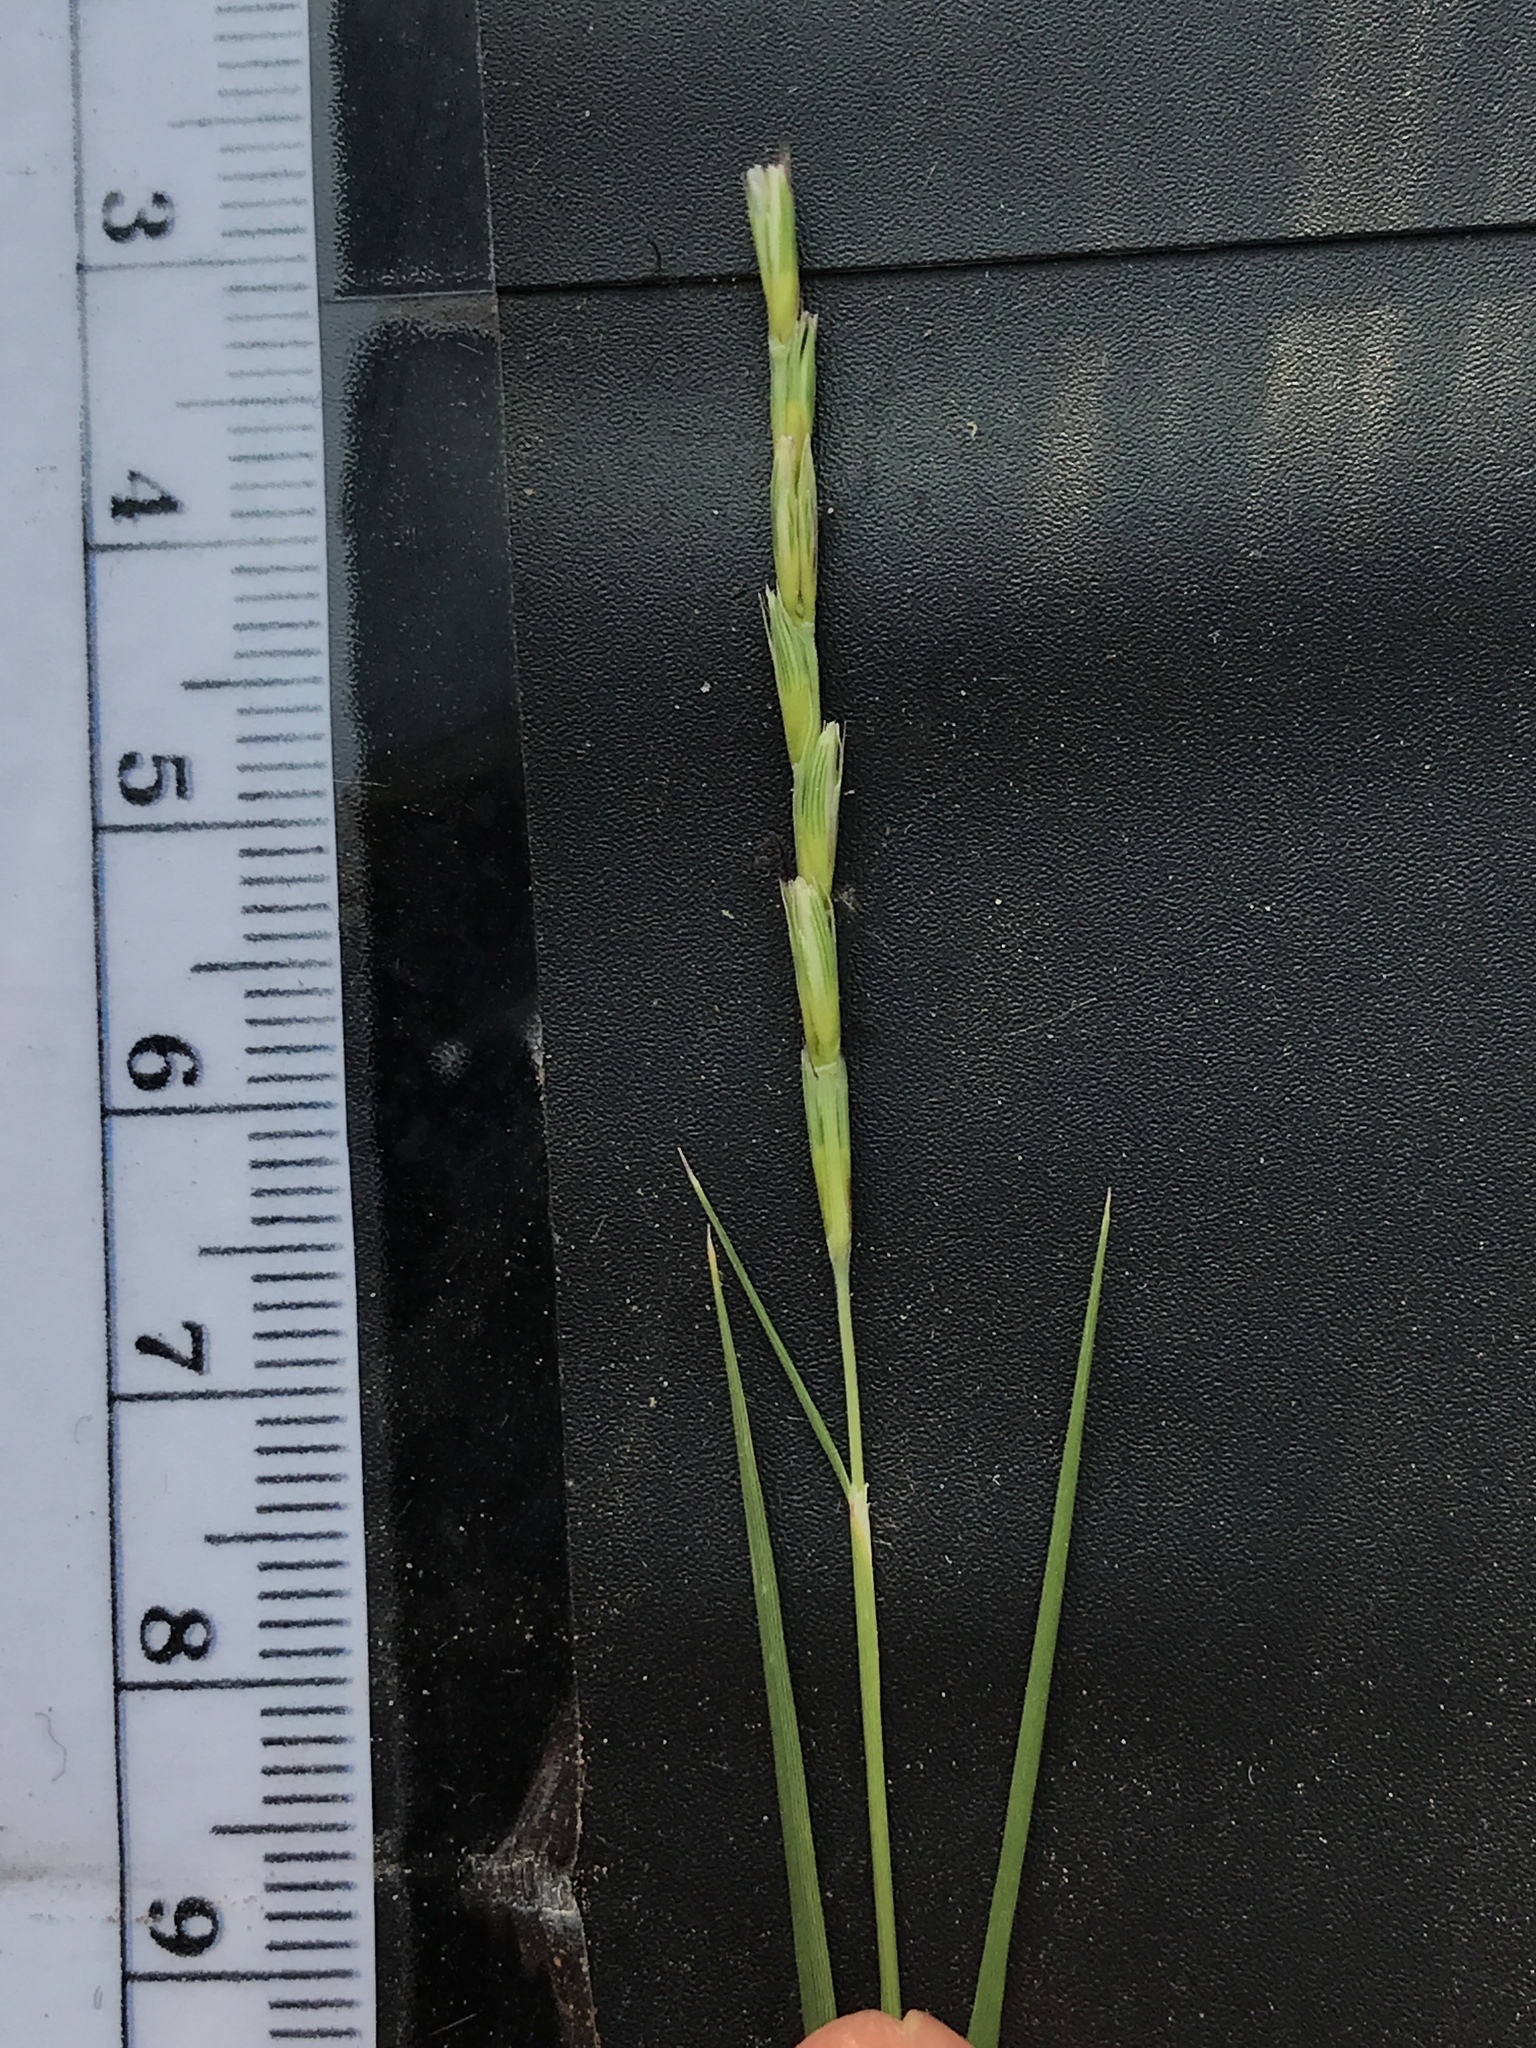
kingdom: Plantae
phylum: Tracheophyta
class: Liliopsida
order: Poales
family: Poaceae
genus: Hilaria
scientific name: Hilaria belangeri
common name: Curly-mesquite
